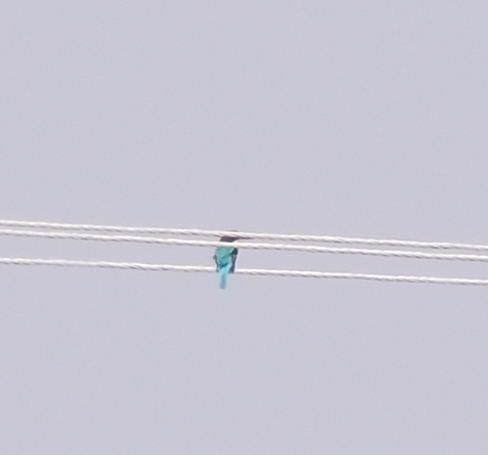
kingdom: Animalia
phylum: Chordata
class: Aves
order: Coraciiformes
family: Alcedinidae
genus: Halcyon
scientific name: Halcyon smyrnensis
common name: White-throated kingfisher
